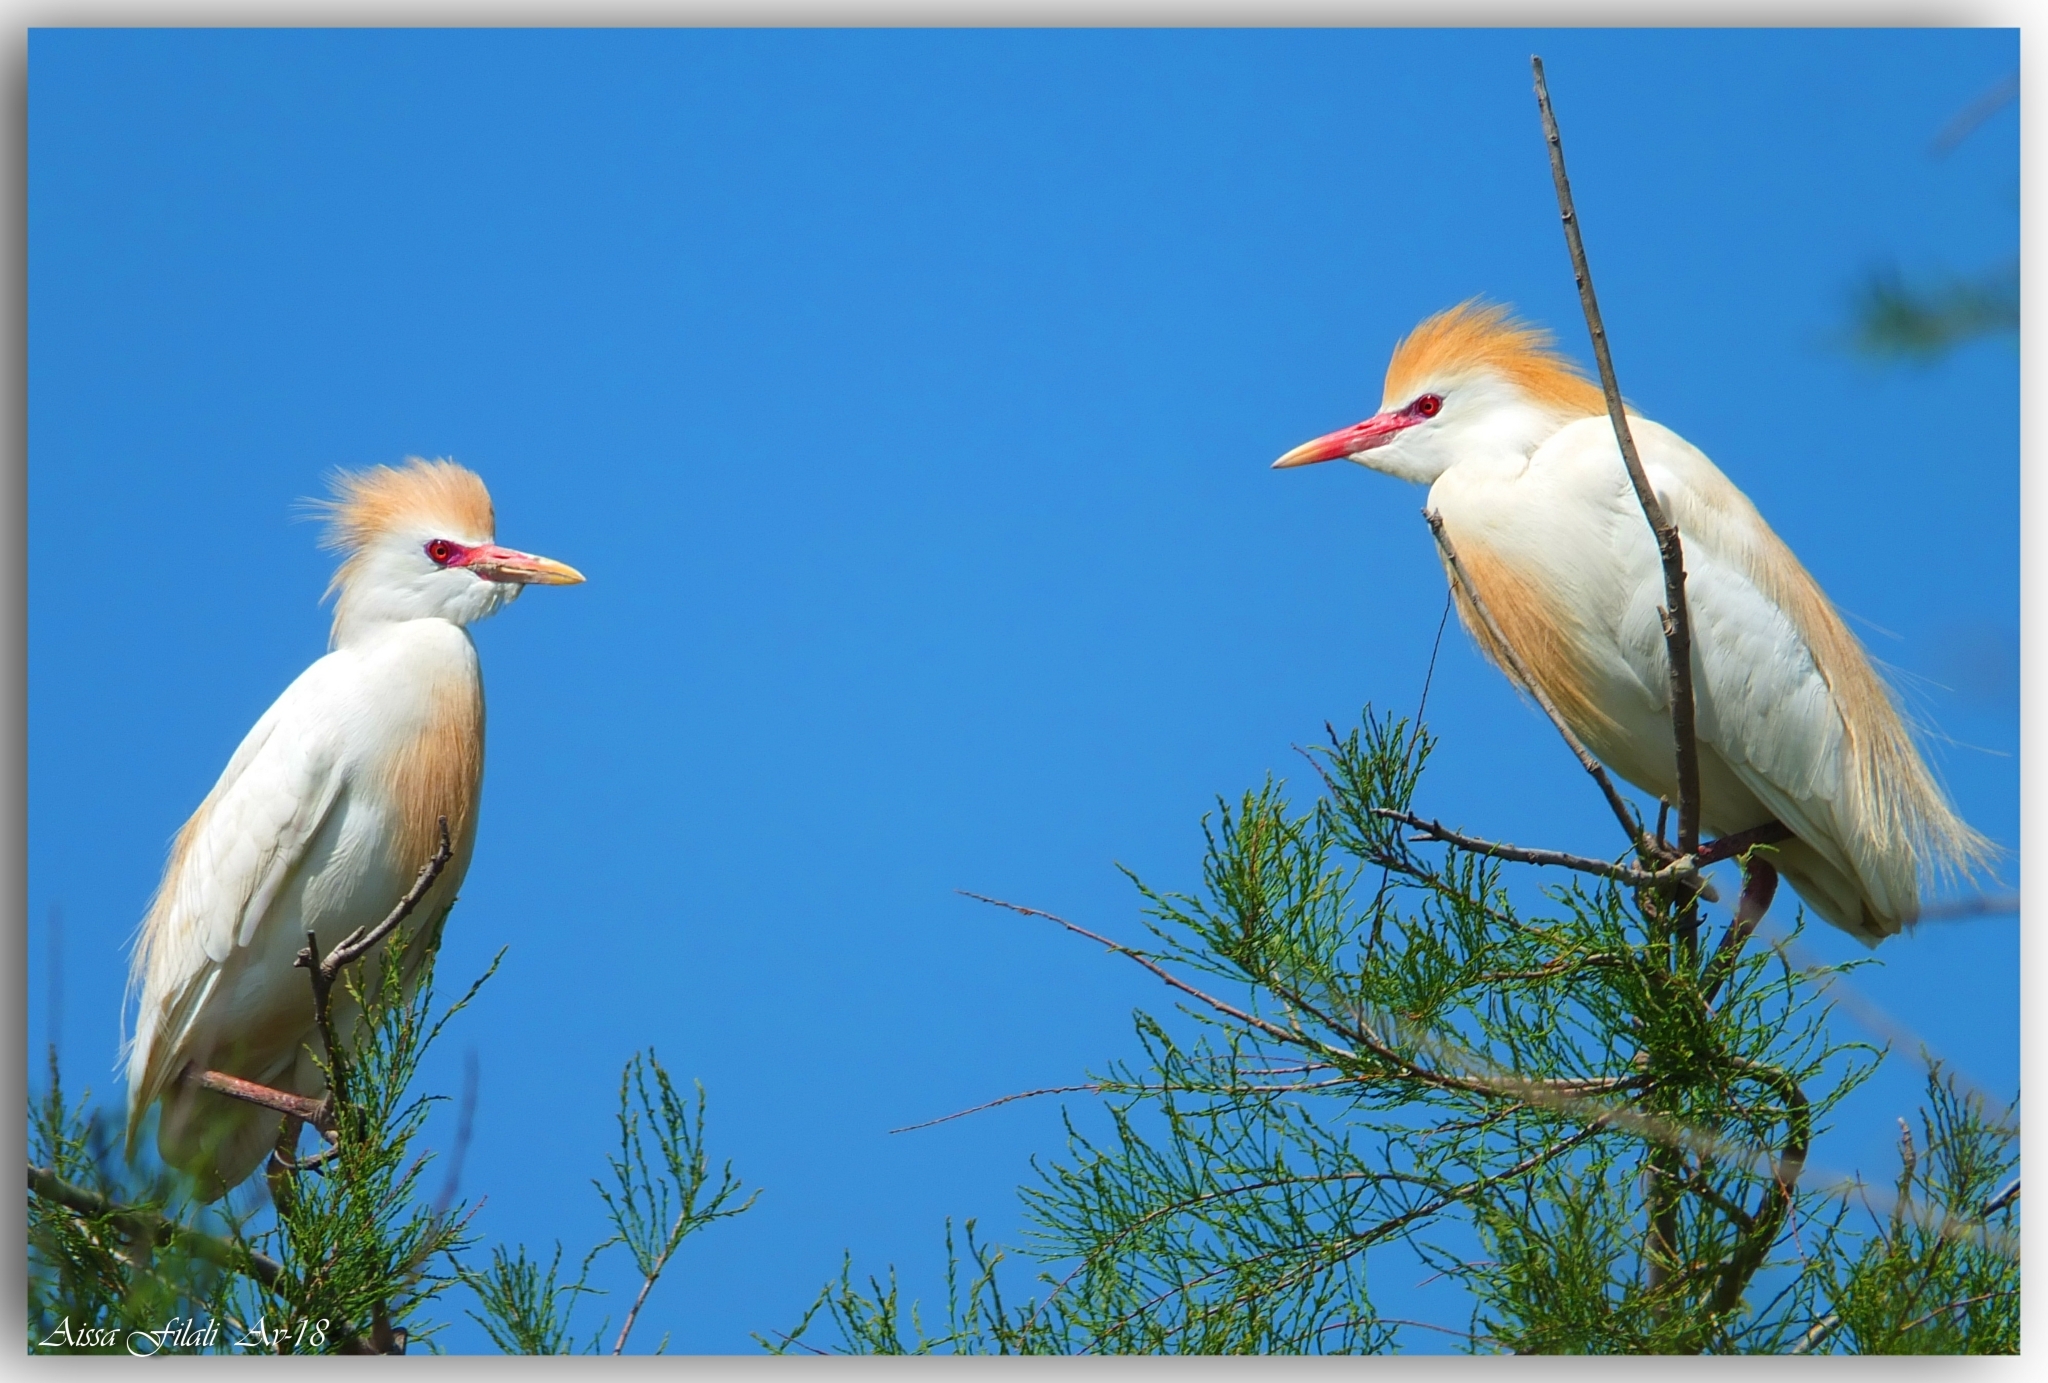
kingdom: Animalia
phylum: Chordata
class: Aves
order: Pelecaniformes
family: Ardeidae
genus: Bubulcus
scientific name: Bubulcus ibis
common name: Cattle egret
